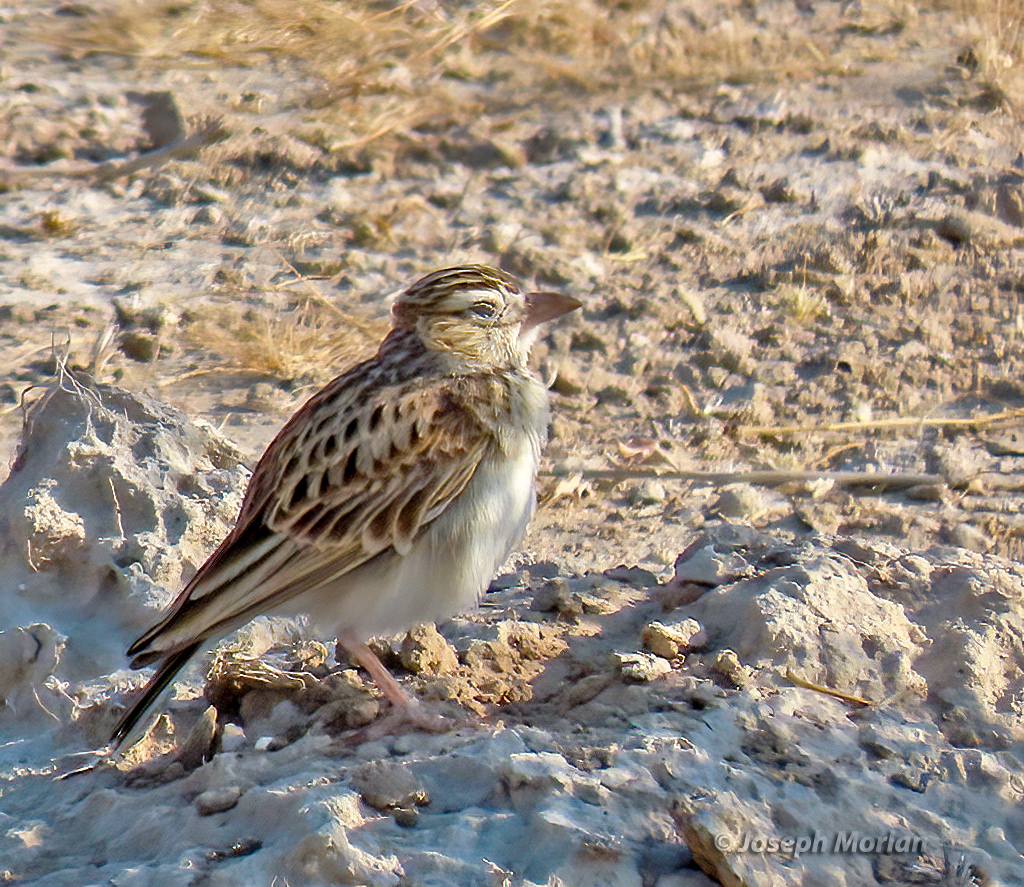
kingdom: Animalia
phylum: Chordata
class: Aves
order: Passeriformes
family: Alaudidae
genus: Calendulauda
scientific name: Calendulauda sabota
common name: Sabota lark
